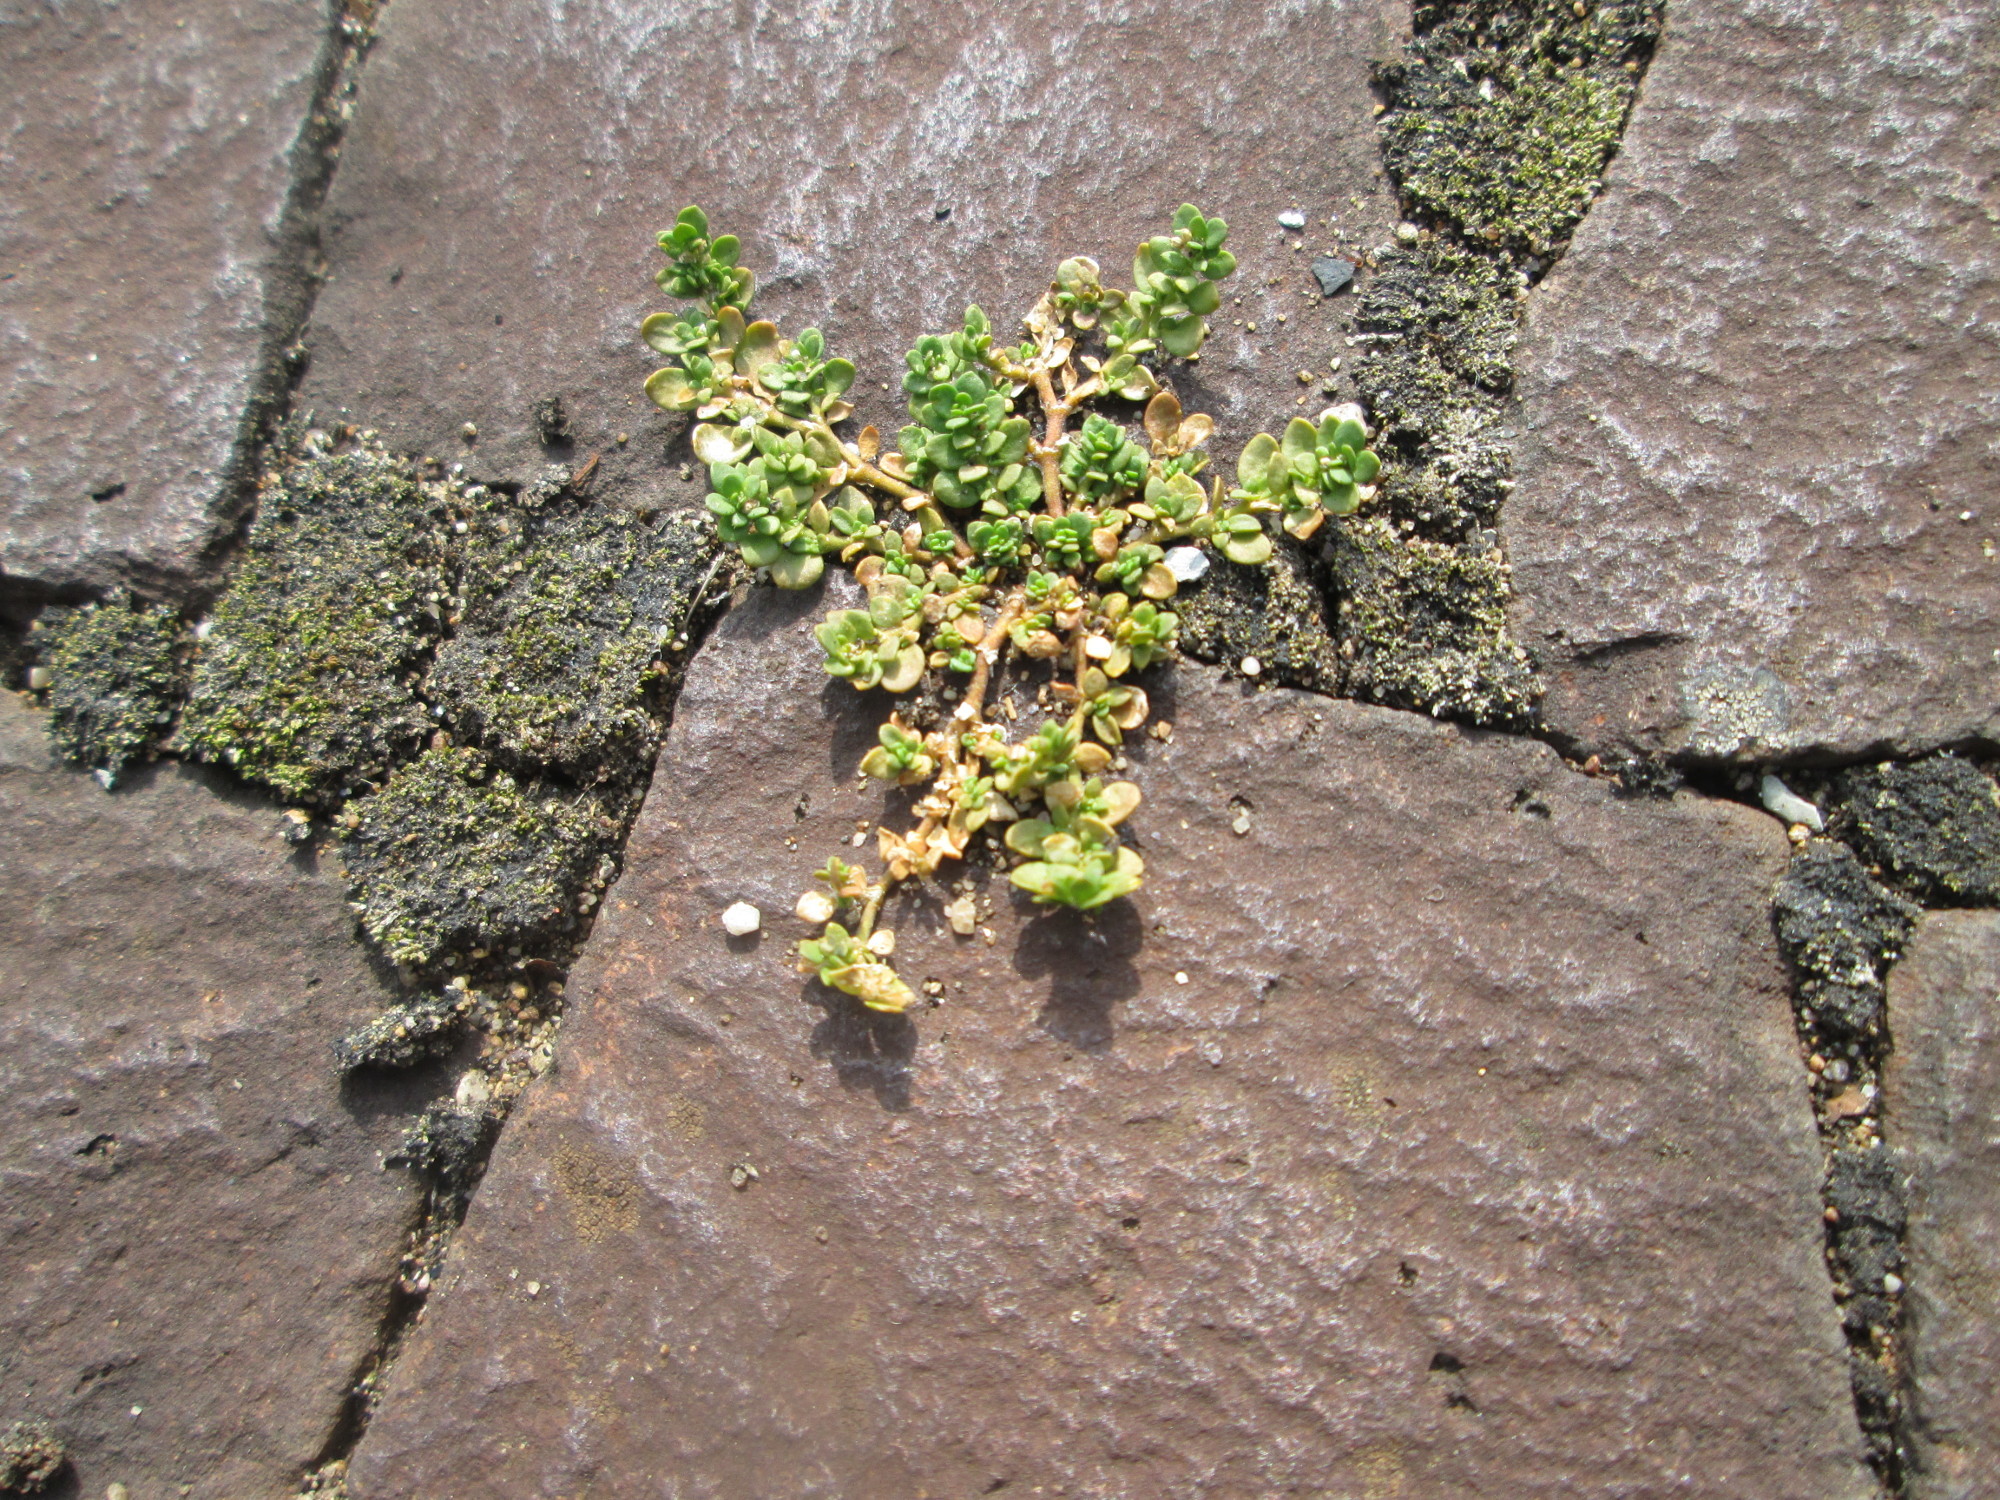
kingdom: Plantae
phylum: Tracheophyta
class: Magnoliopsida
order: Caryophyllales
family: Caryophyllaceae
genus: Herniaria
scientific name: Herniaria glabra
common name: Smooth rupturewort
